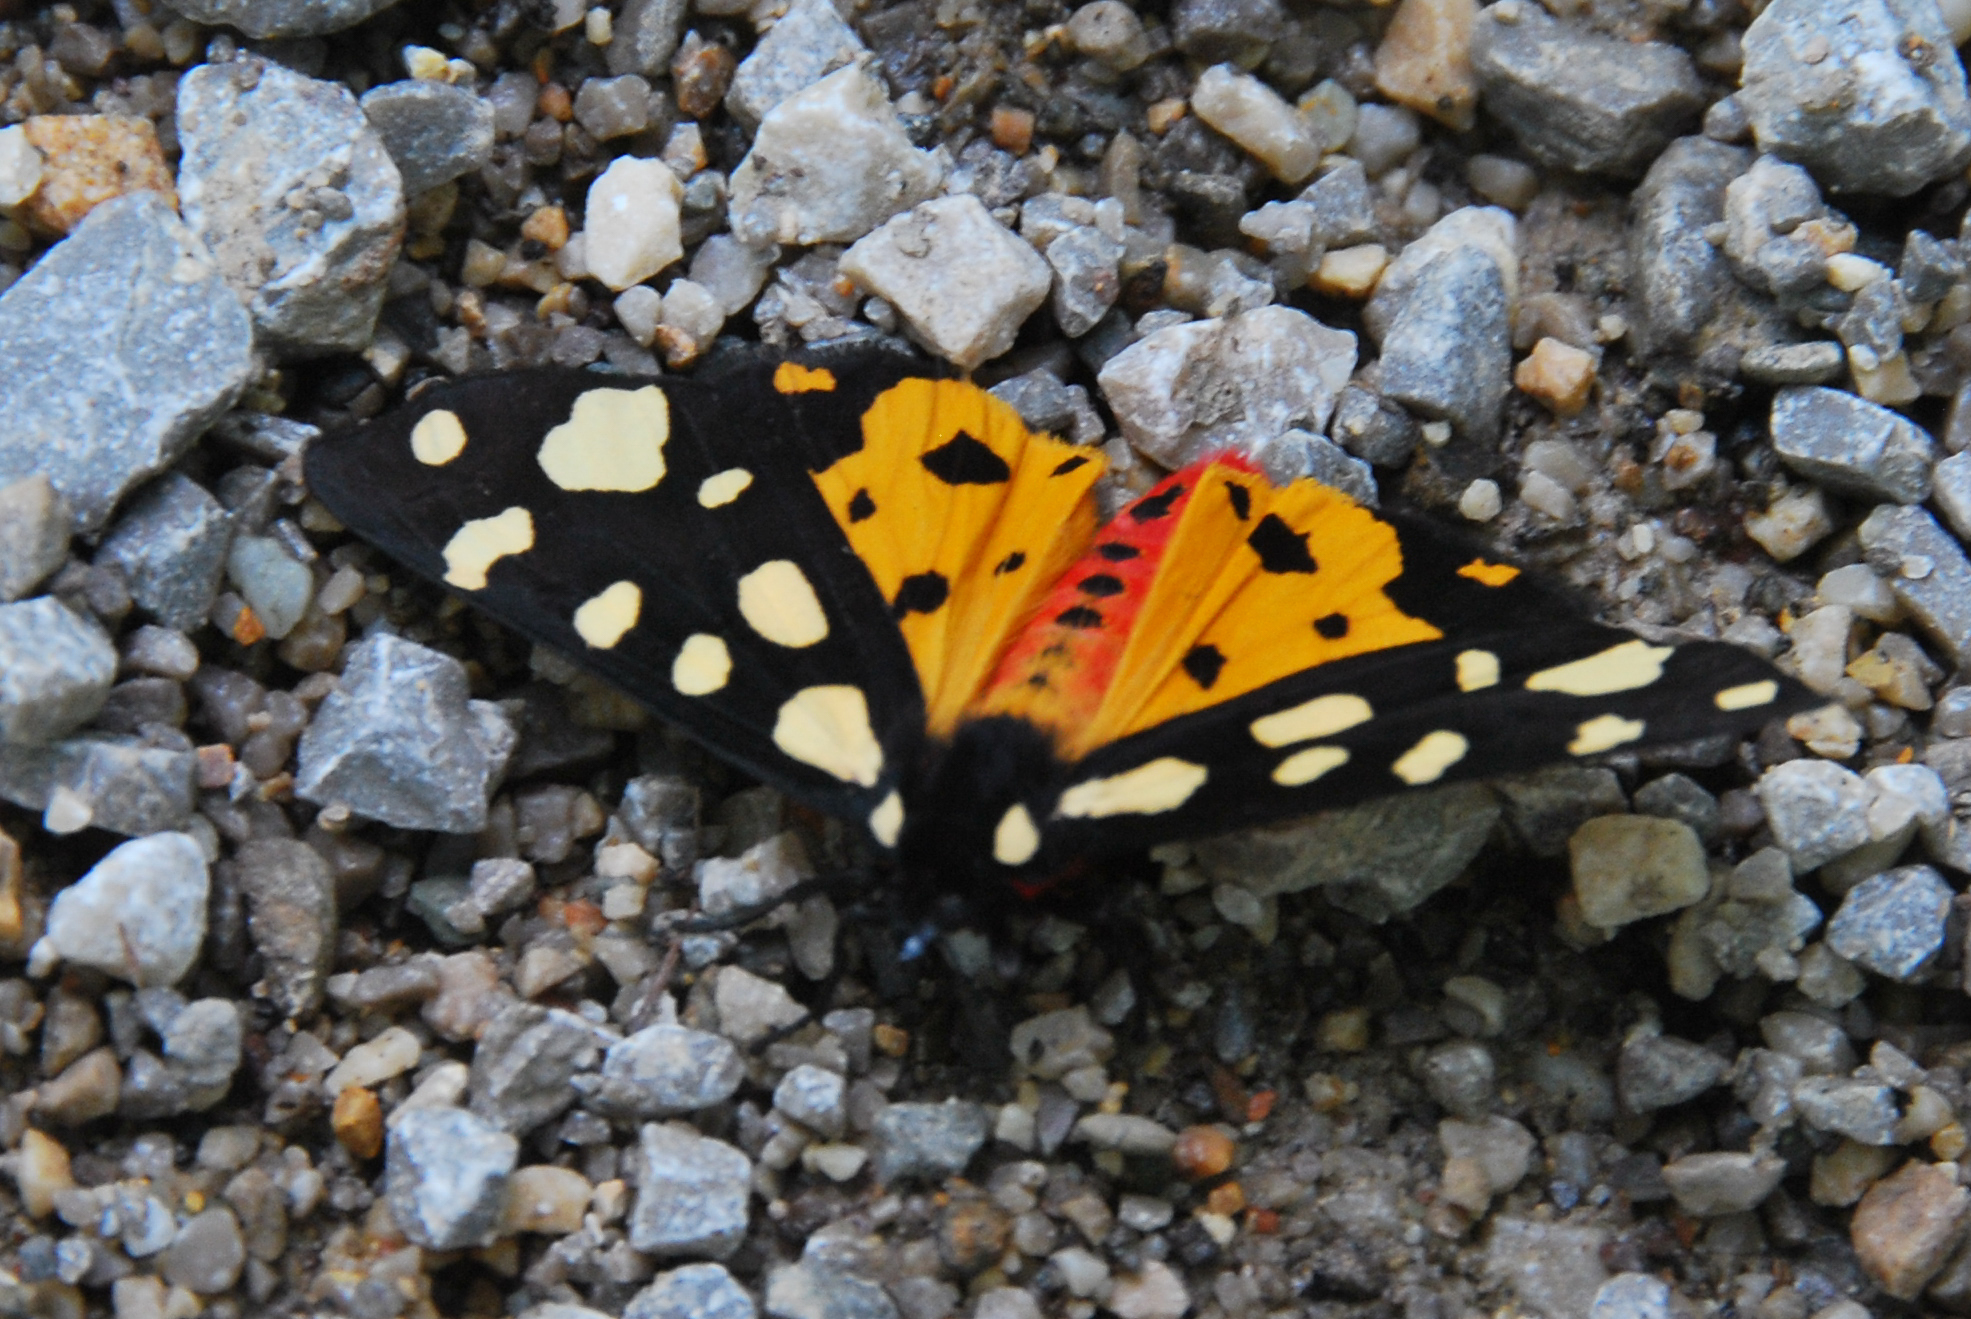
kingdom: Animalia
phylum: Arthropoda
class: Insecta
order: Lepidoptera
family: Erebidae
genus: Epicallia
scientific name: Epicallia villica
